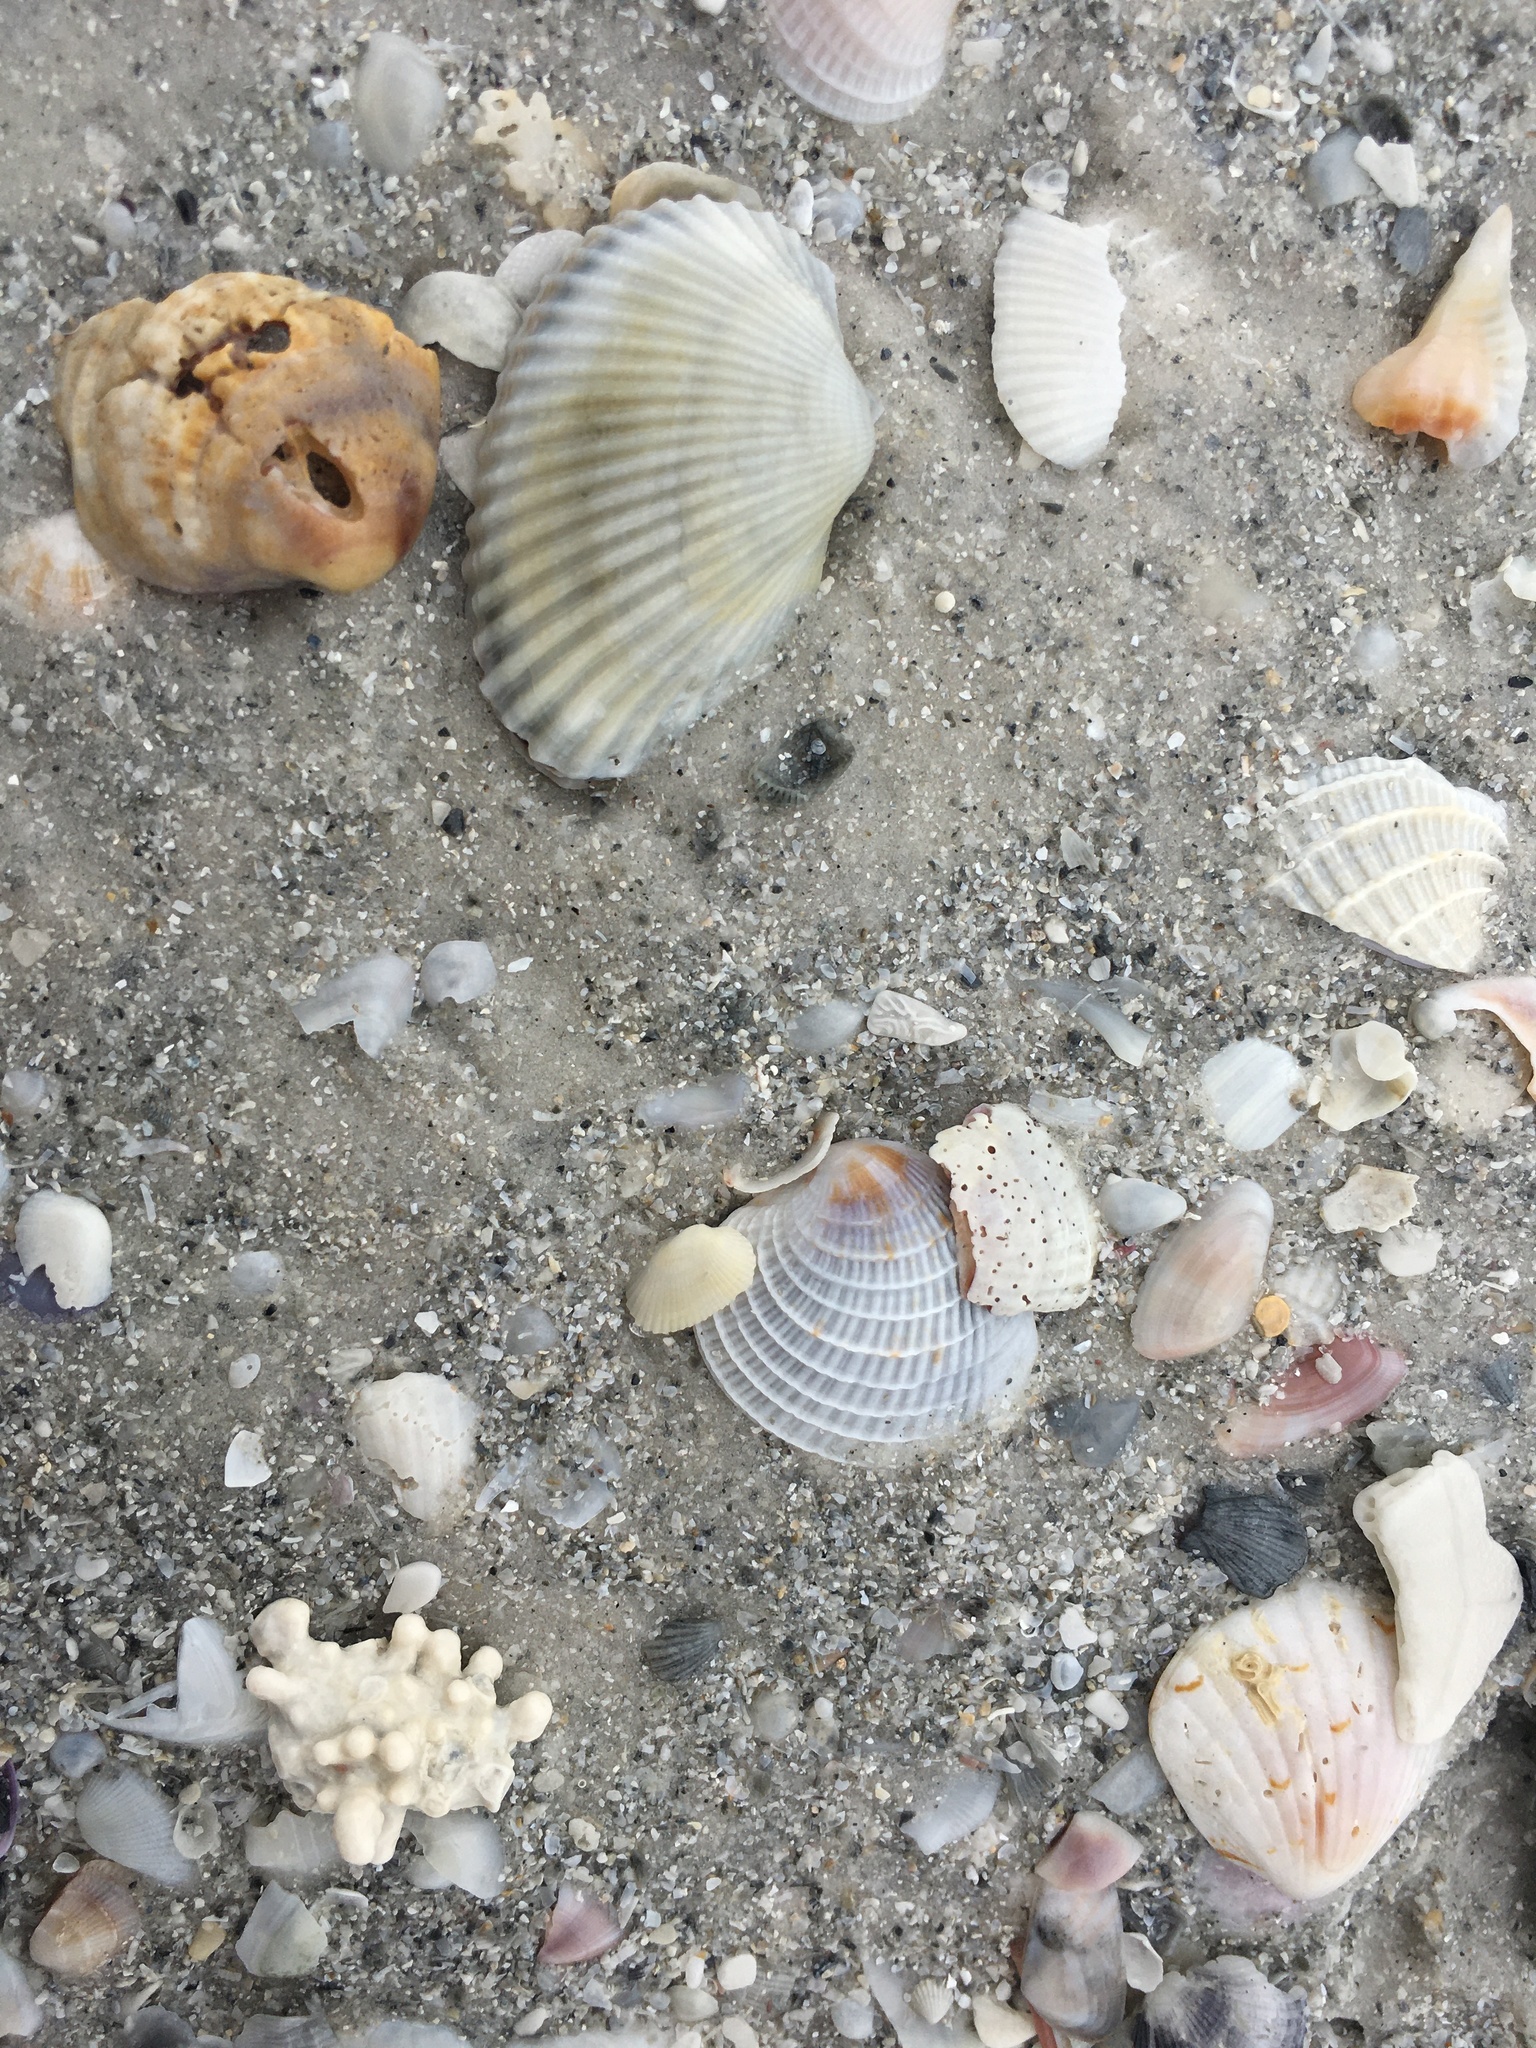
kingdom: Animalia
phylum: Mollusca
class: Bivalvia
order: Arcida
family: Arcidae
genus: Anadara
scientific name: Anadara transversa
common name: Transverse ark
